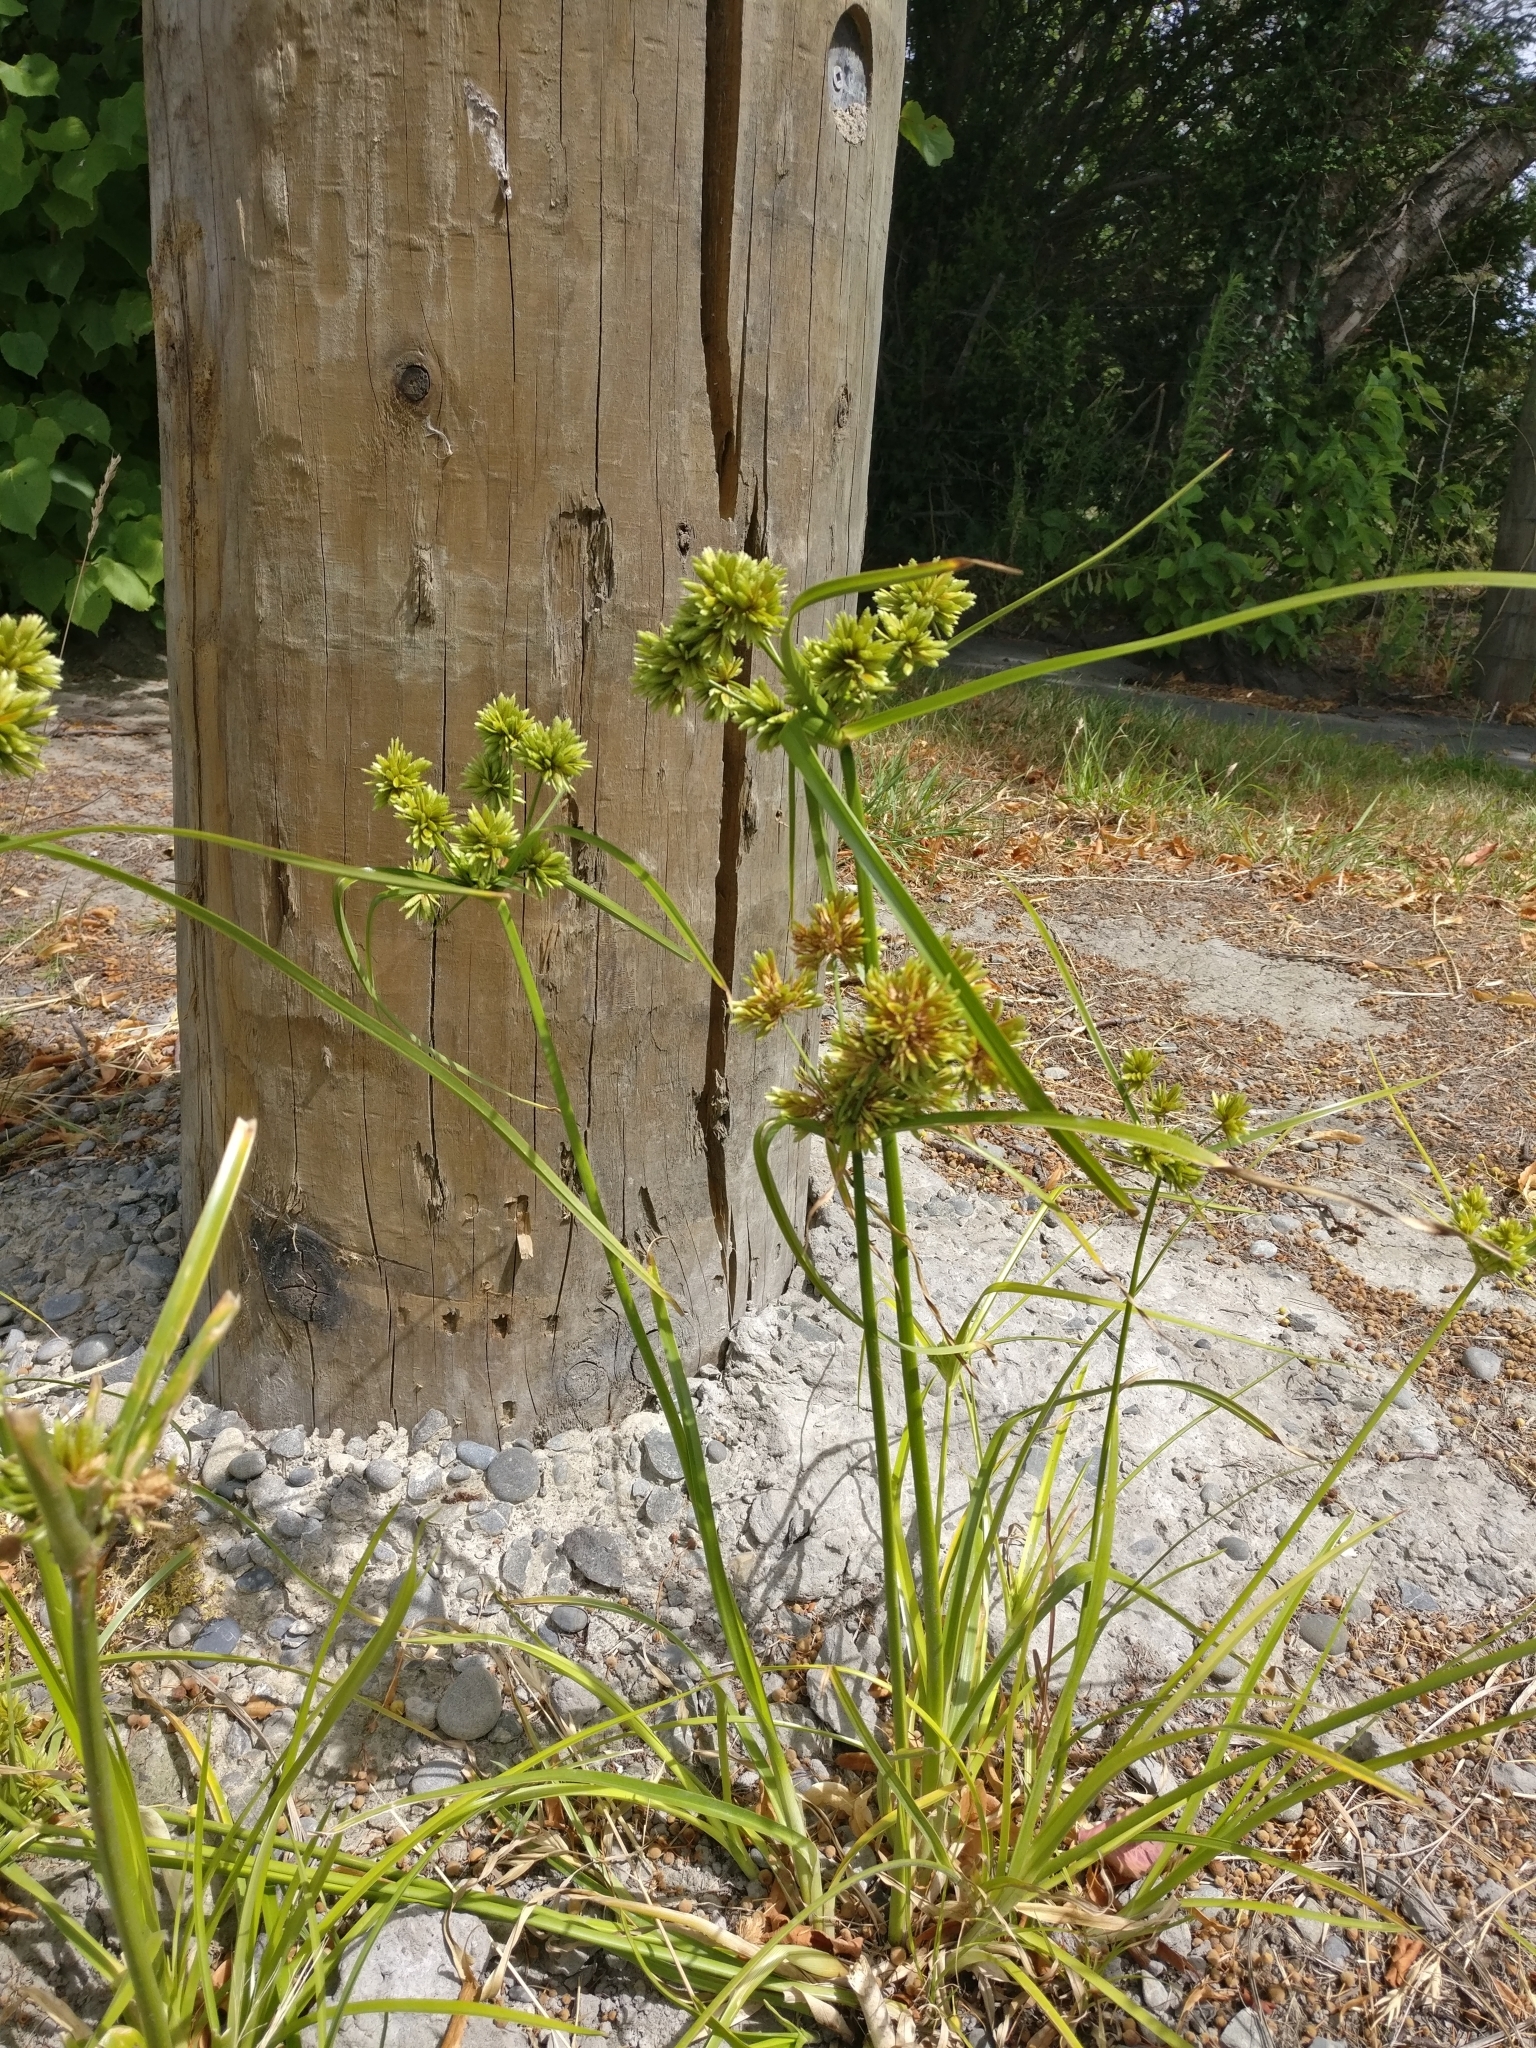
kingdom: Plantae
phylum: Tracheophyta
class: Liliopsida
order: Poales
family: Cyperaceae
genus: Cyperus
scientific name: Cyperus eragrostis
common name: Tall flatsedge
